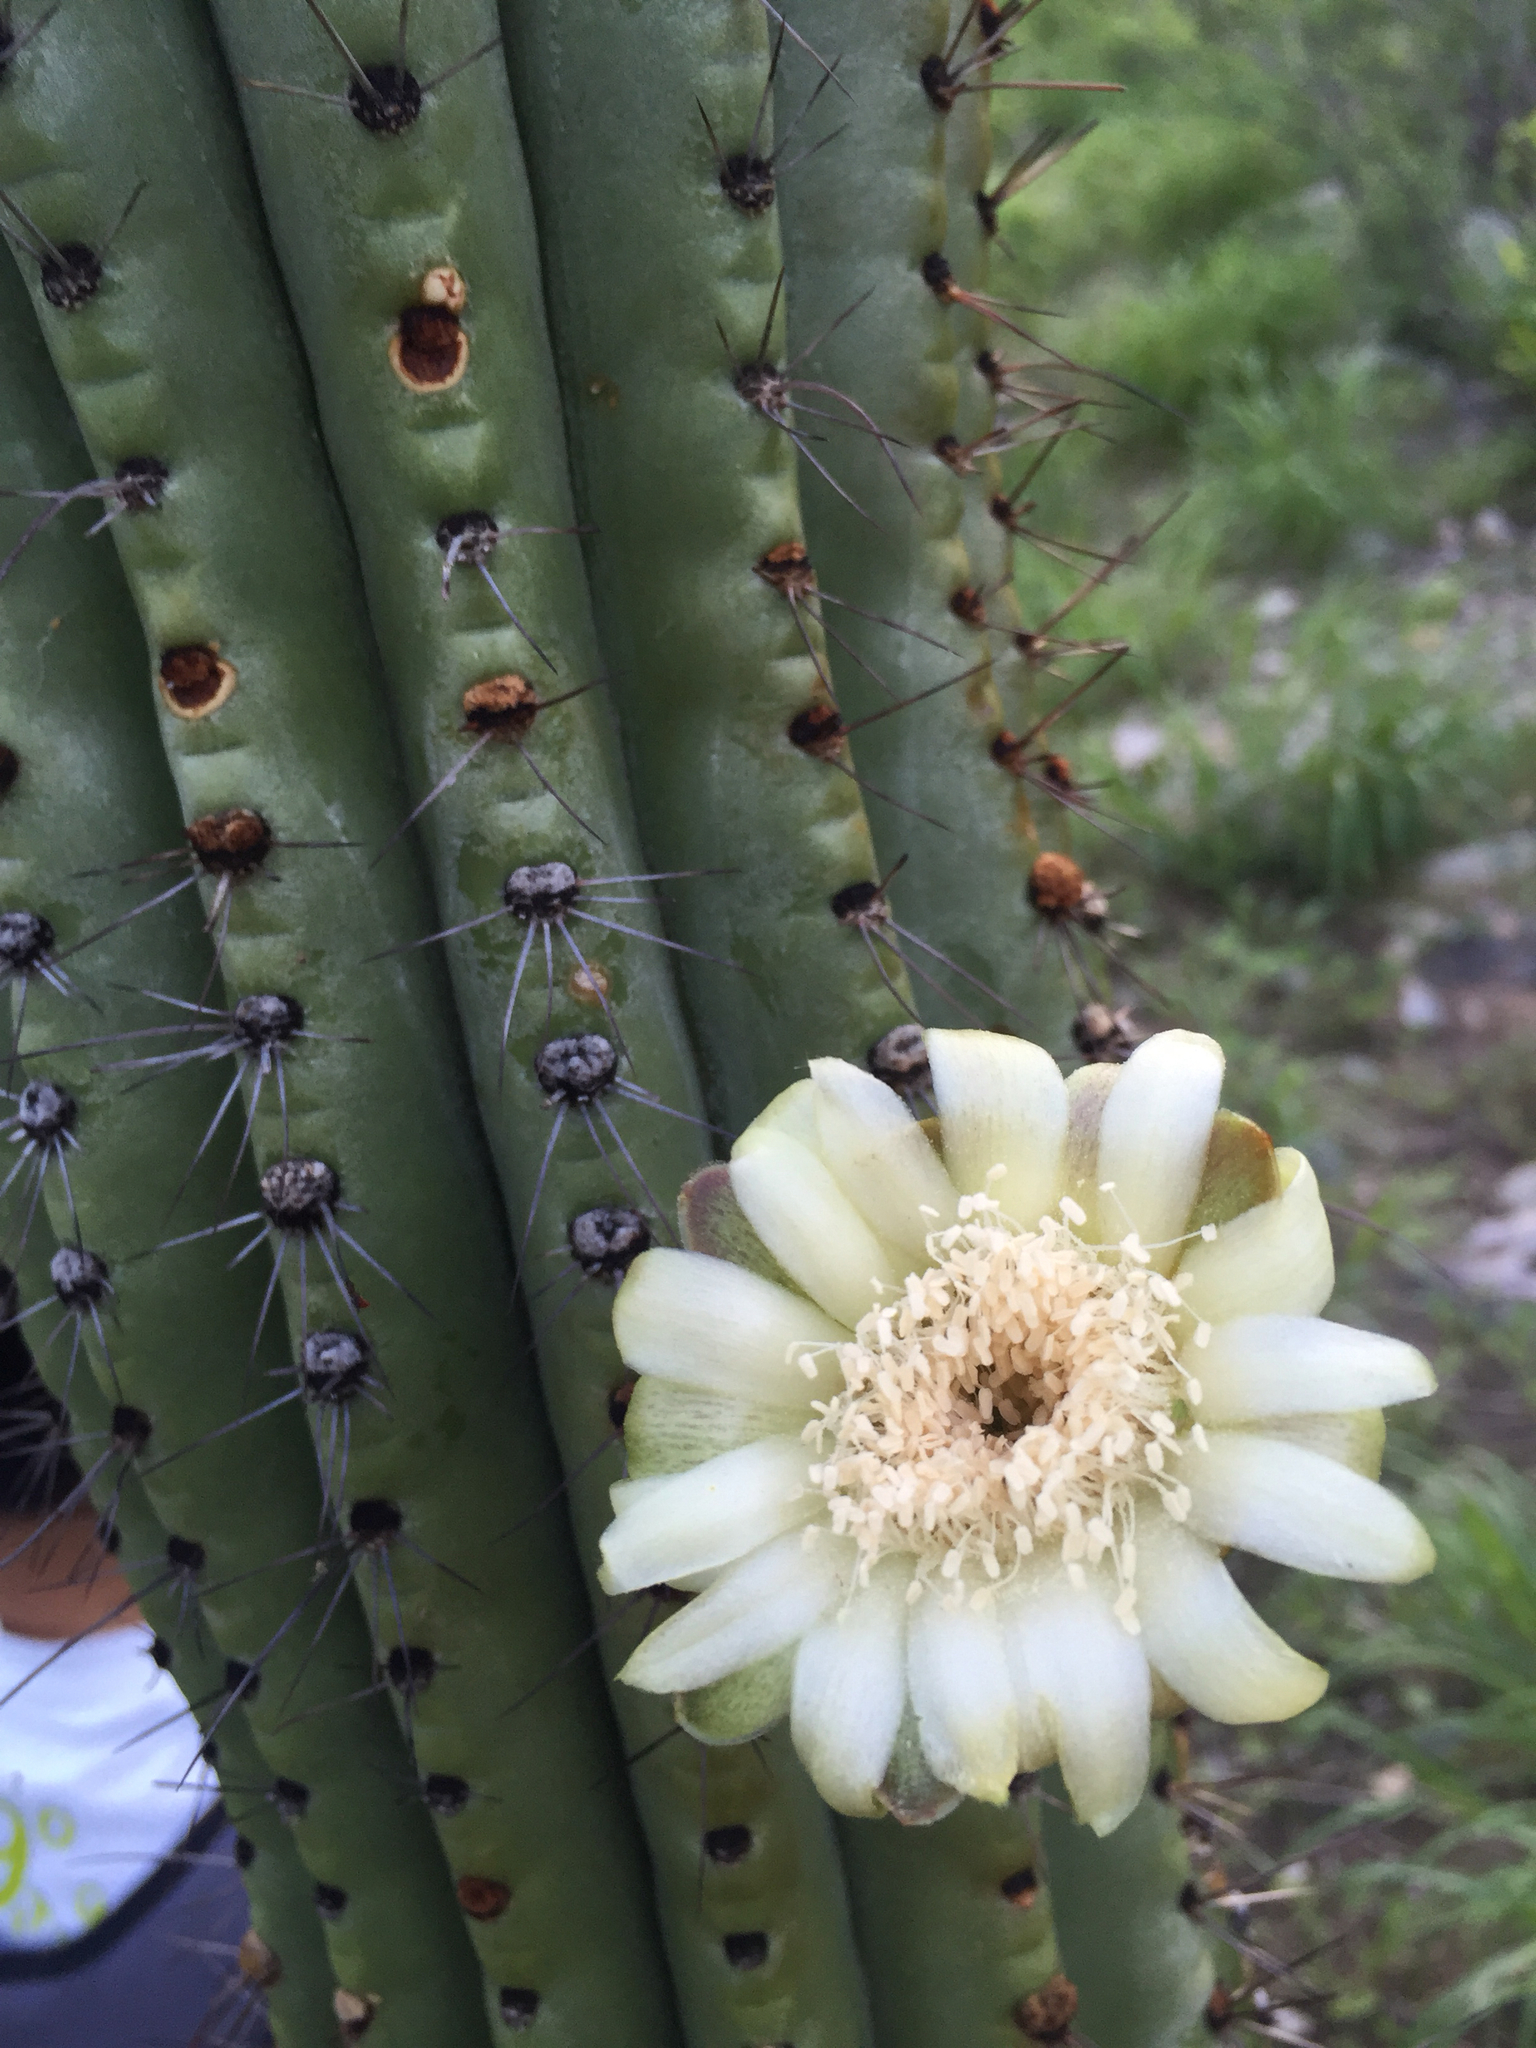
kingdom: Plantae
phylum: Tracheophyta
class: Magnoliopsida
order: Caryophyllales
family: Cactaceae
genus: Stenocereus
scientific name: Stenocereus thurberi
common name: Organ pipe cactus
